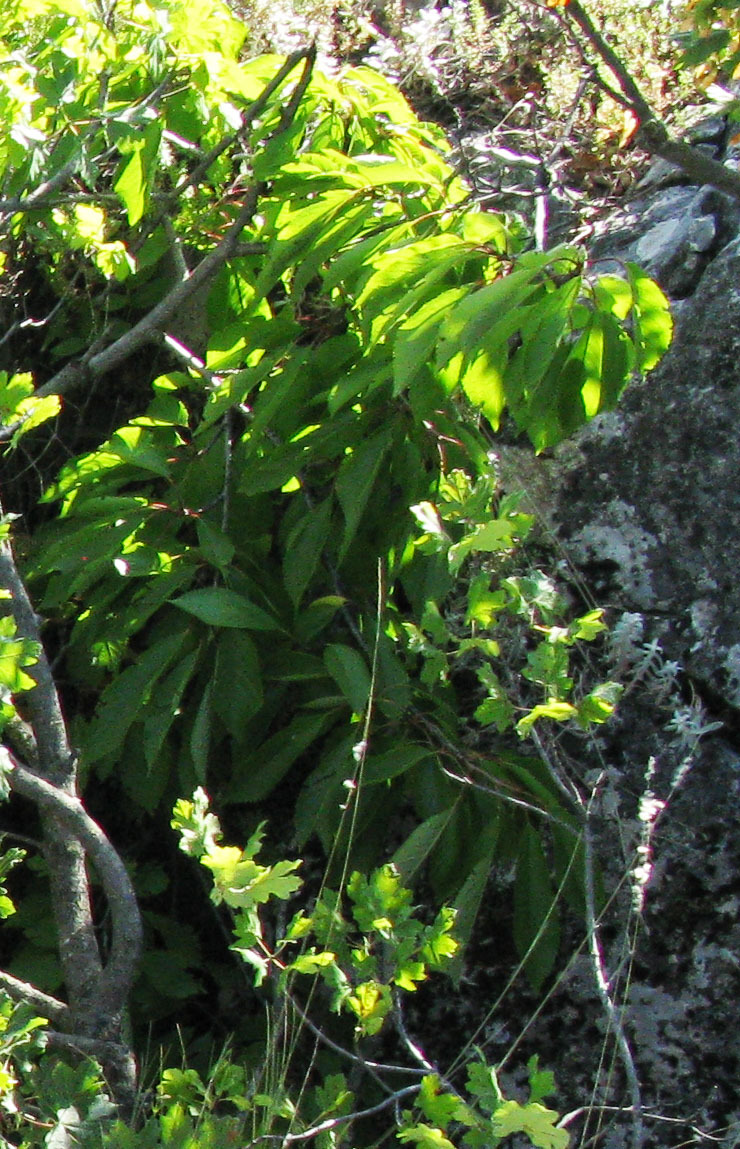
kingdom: Plantae
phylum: Tracheophyta
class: Magnoliopsida
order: Sapindales
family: Sapindaceae
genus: Acer
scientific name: Acer campestre
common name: Field maple
